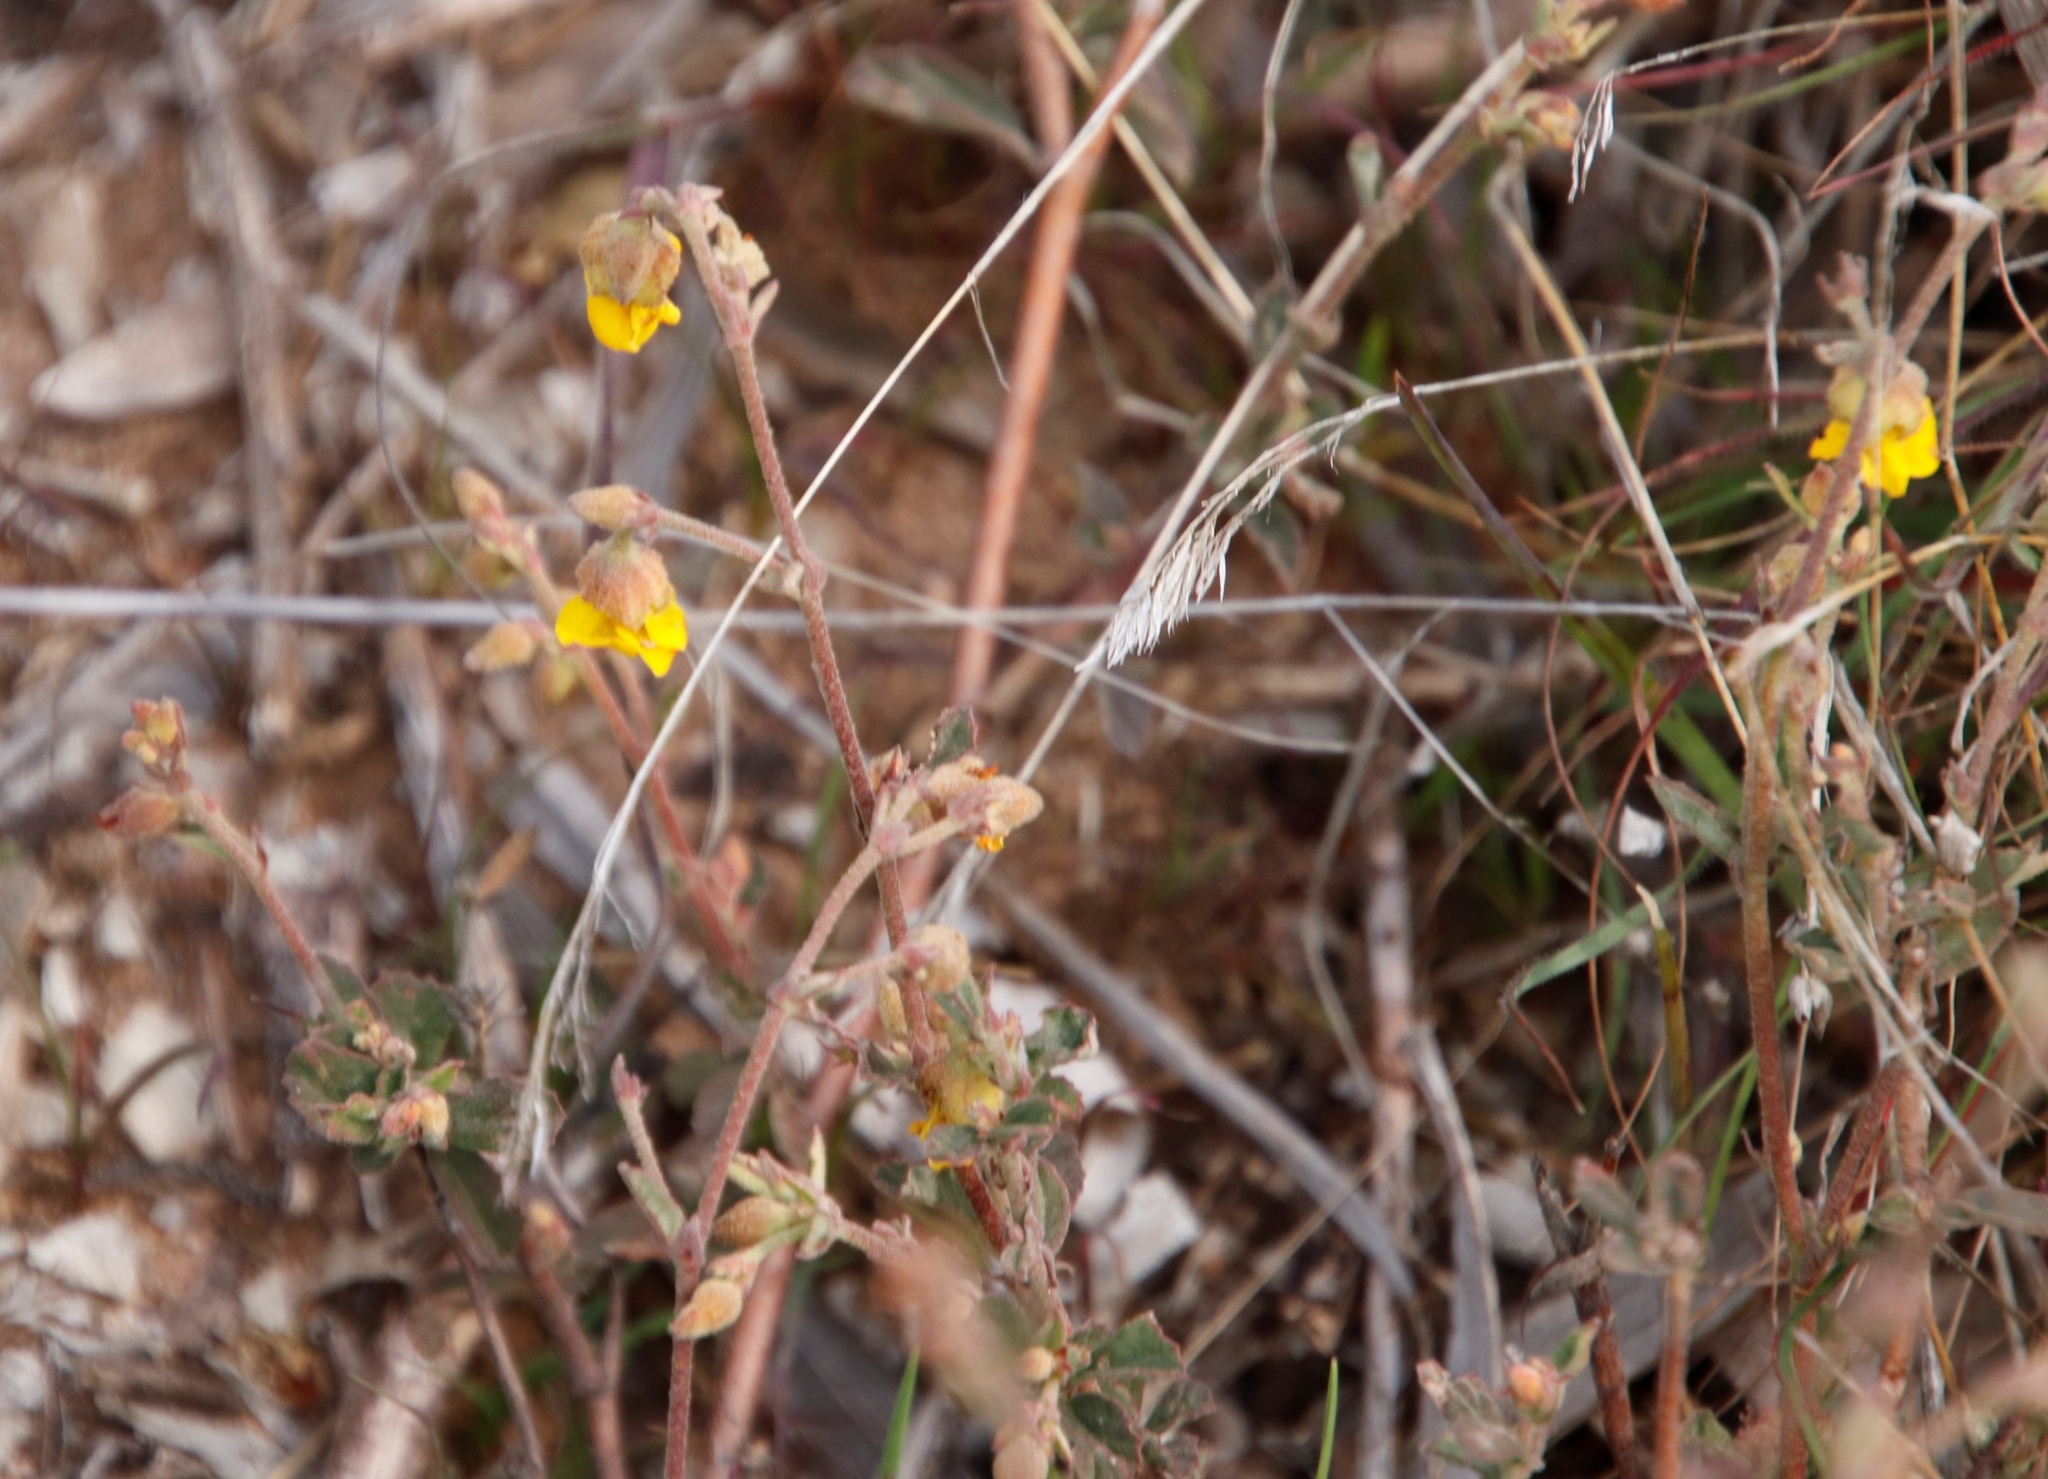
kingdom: Plantae
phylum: Tracheophyta
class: Magnoliopsida
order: Malvales
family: Malvaceae
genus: Hermannia
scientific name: Hermannia multiflora
